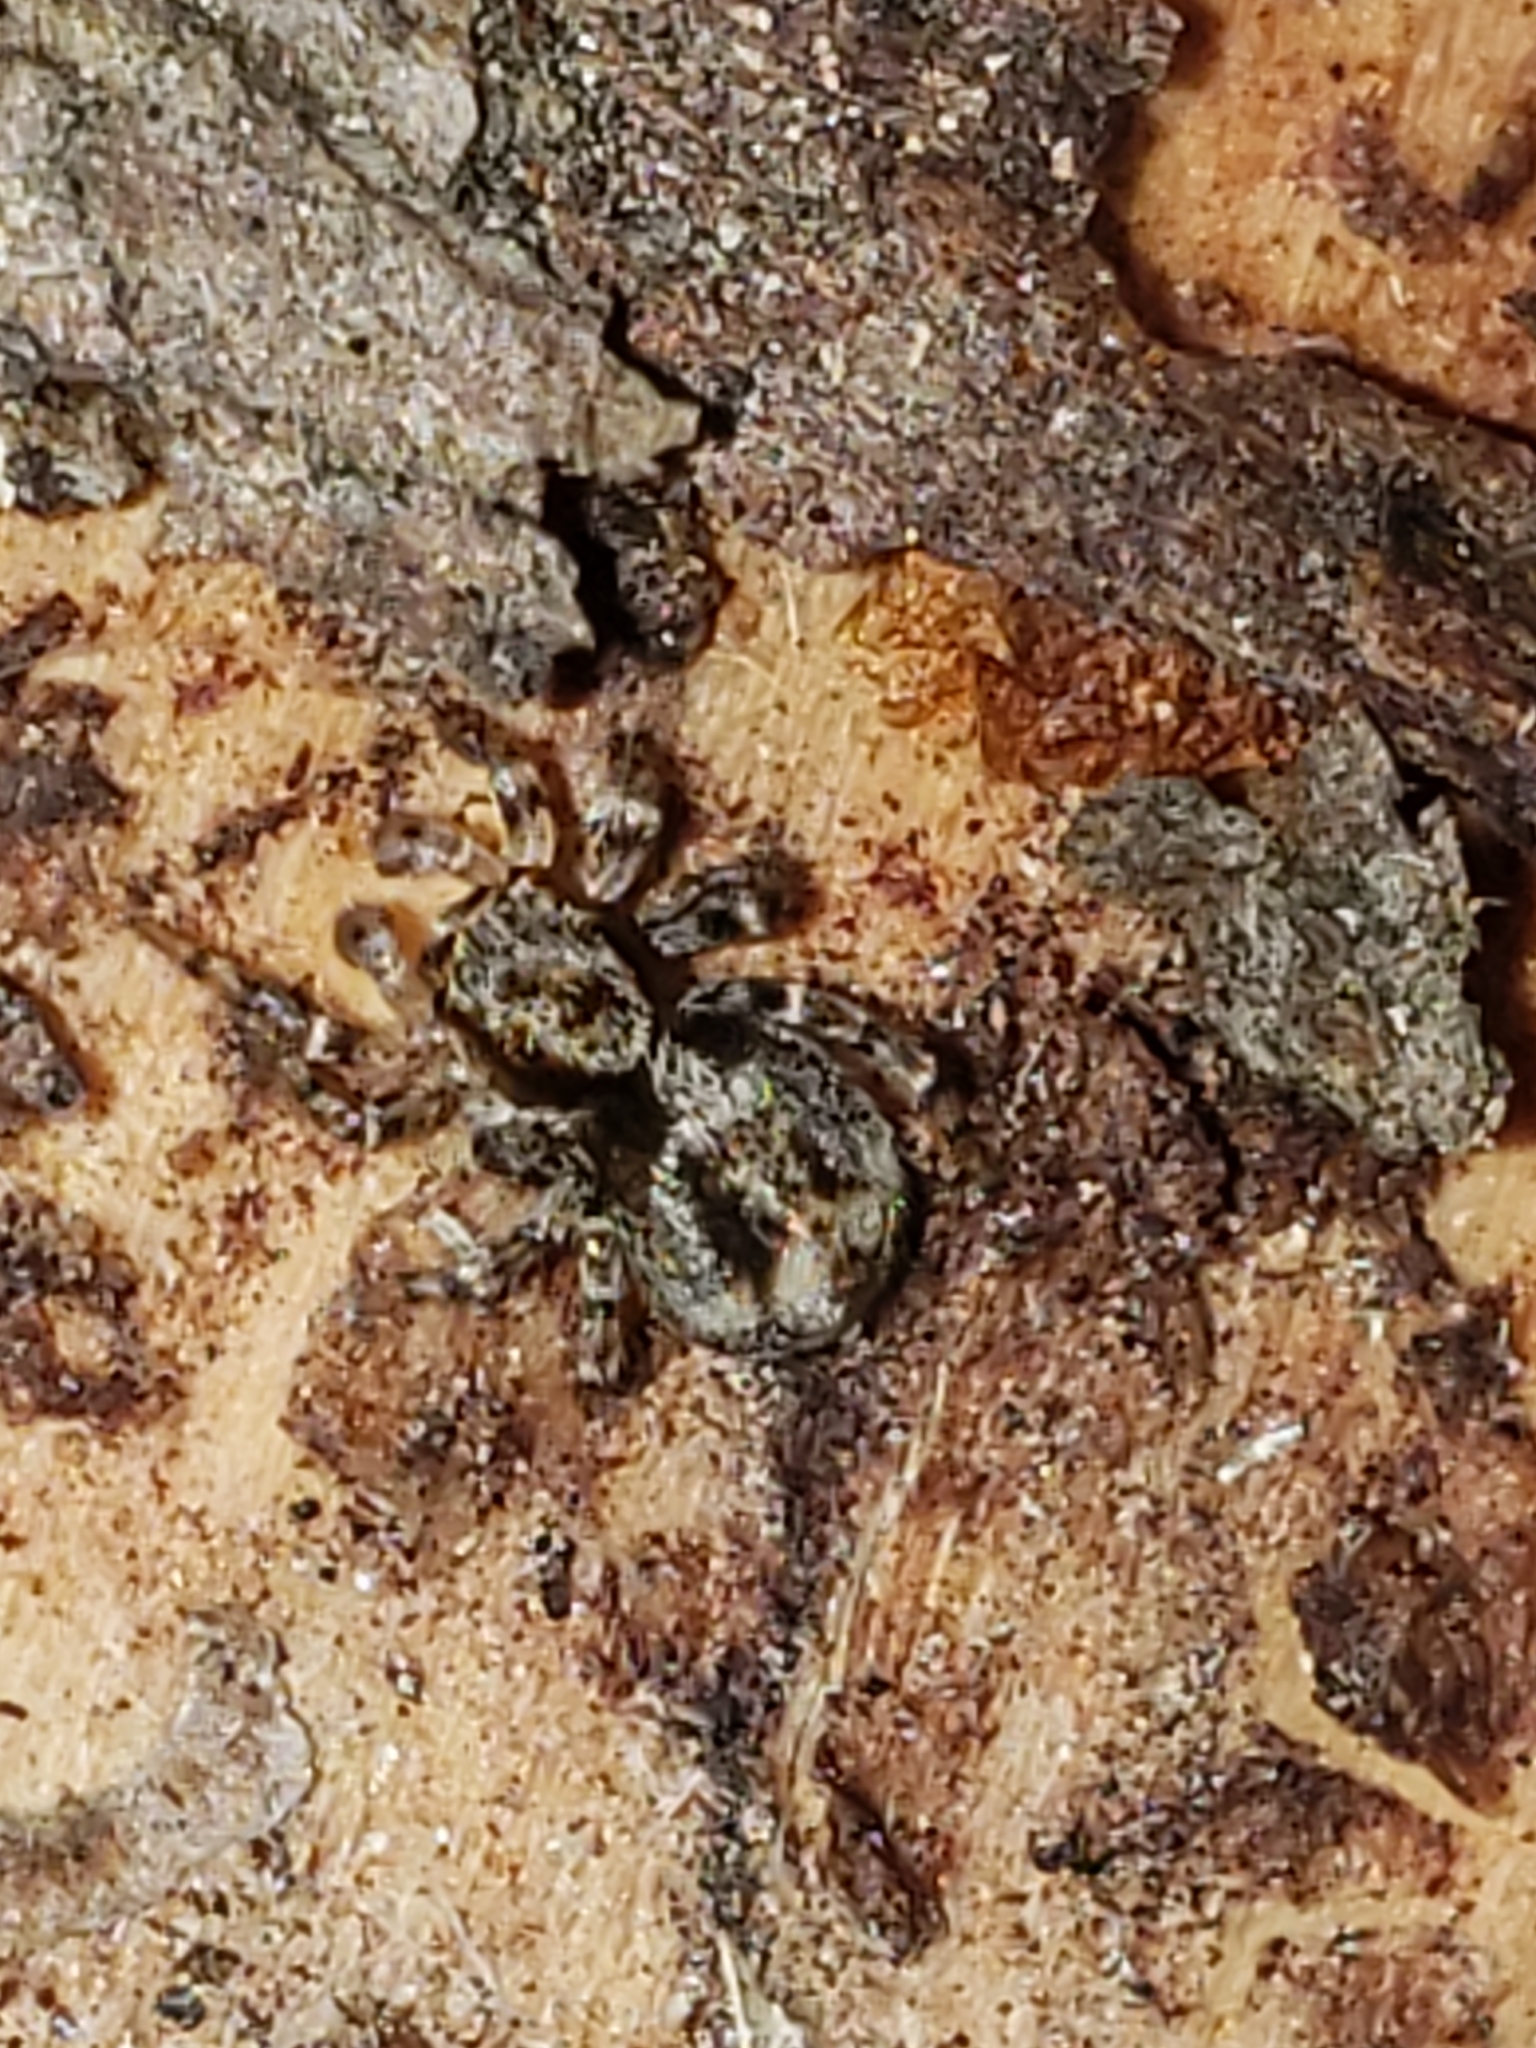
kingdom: Animalia
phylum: Arthropoda
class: Arachnida
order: Araneae
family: Salticidae
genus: Naphrys
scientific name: Naphrys pulex
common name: Flea jumping spider
